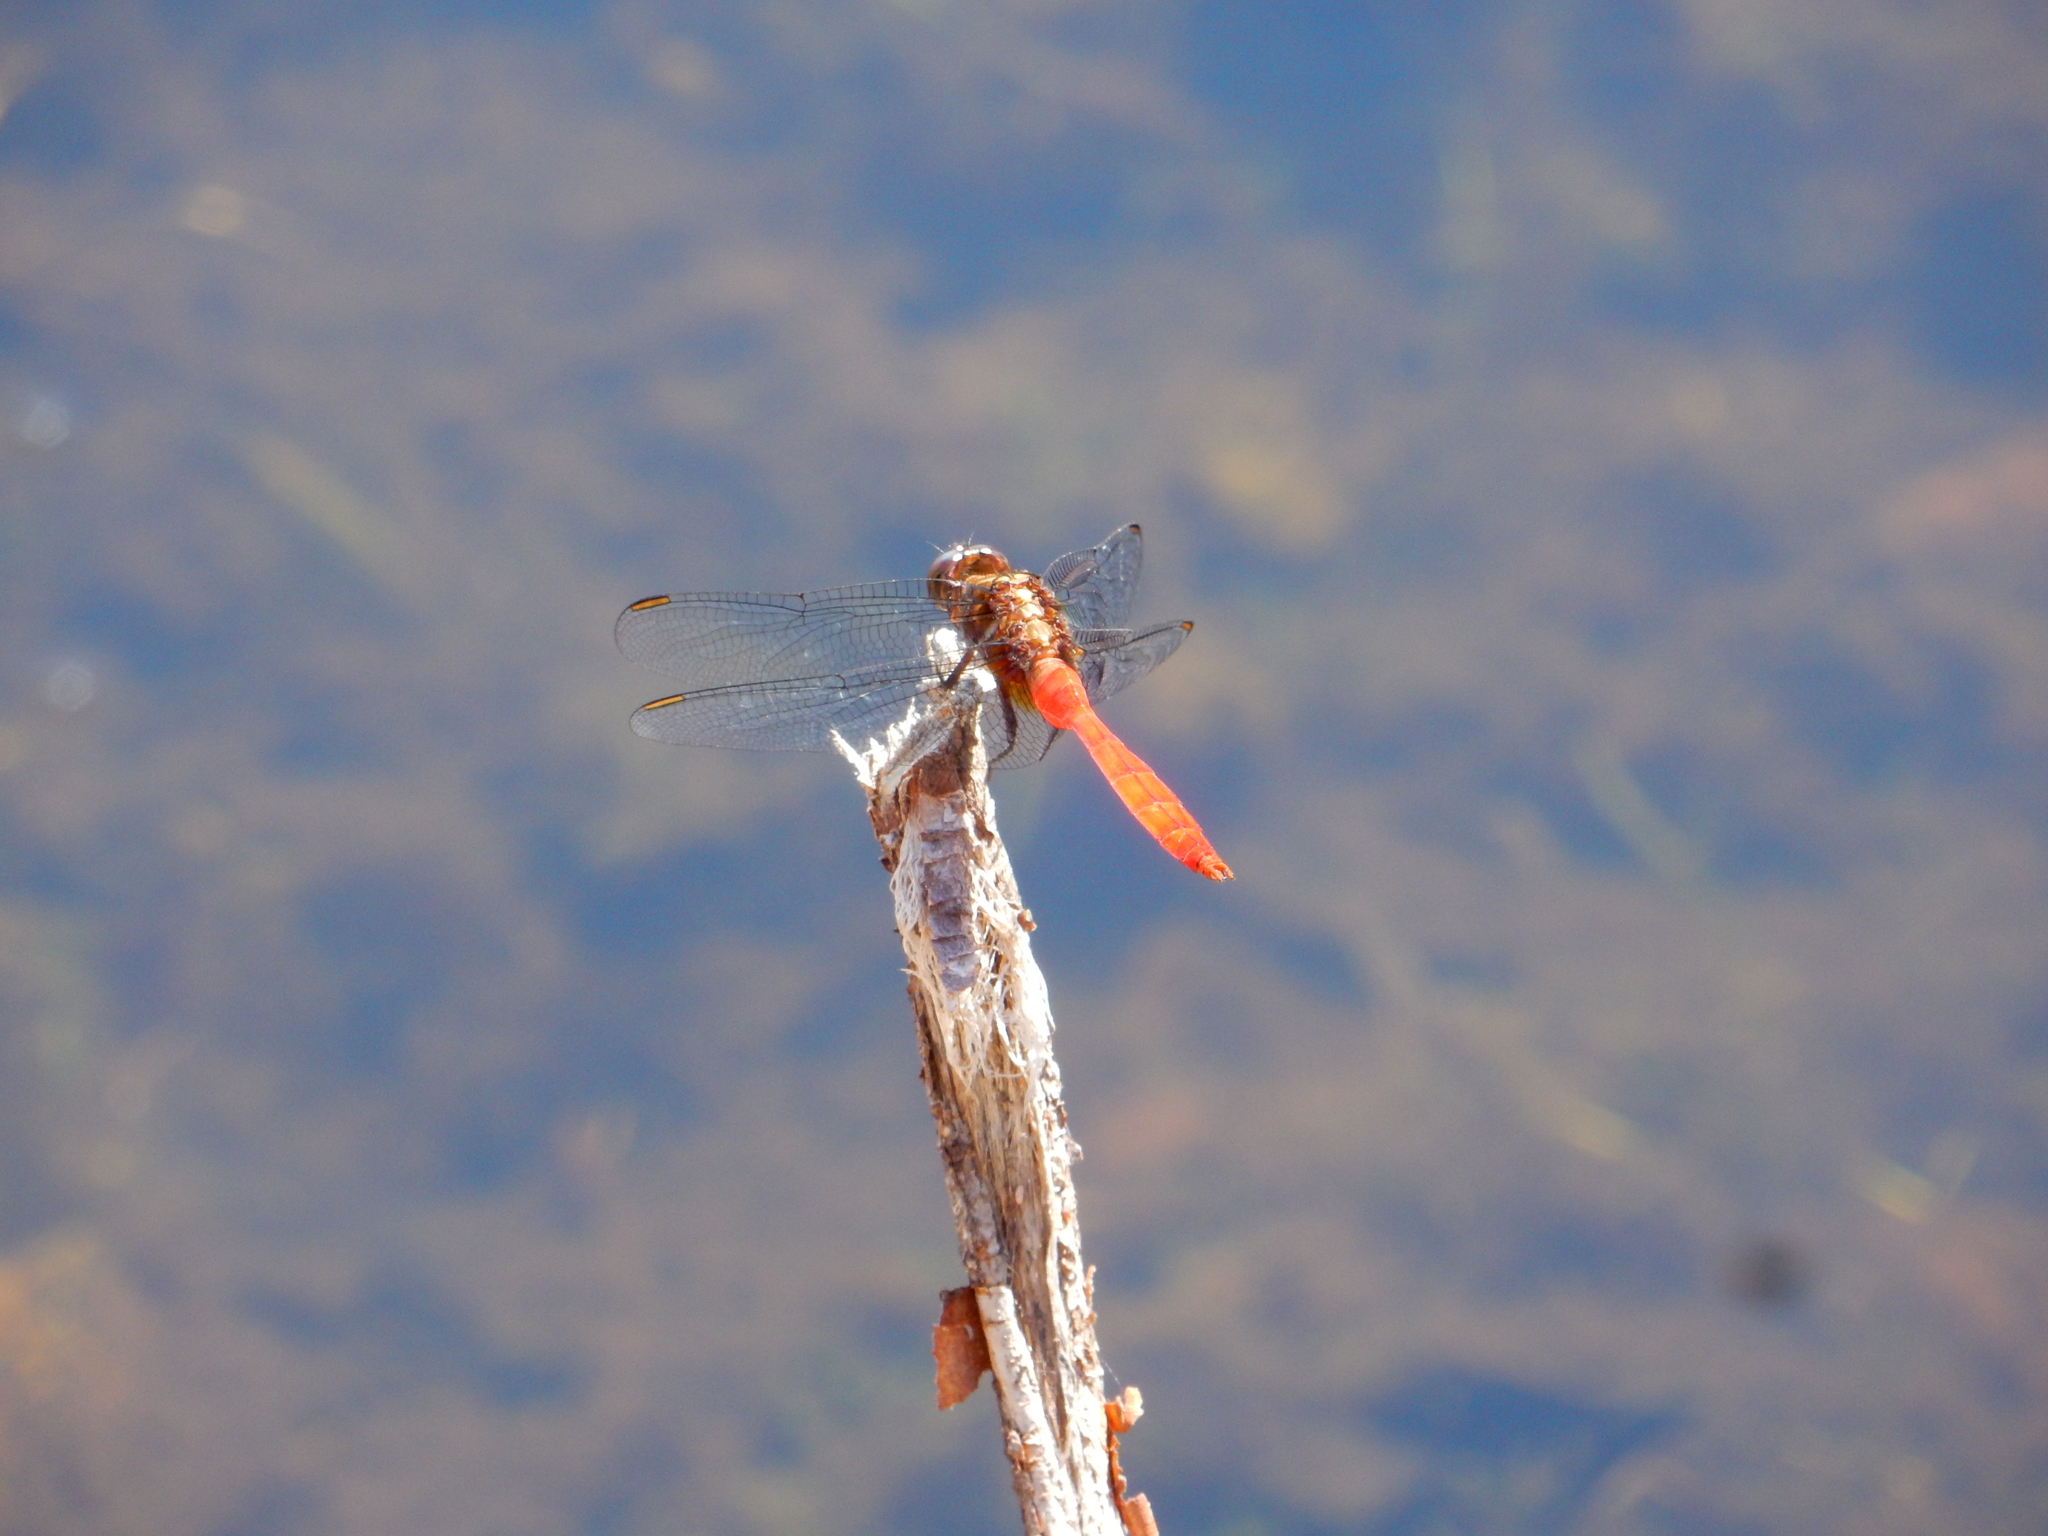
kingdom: Animalia
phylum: Arthropoda
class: Insecta
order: Odonata
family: Libellulidae
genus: Orthetrum
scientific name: Orthetrum villosovittatum
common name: Firery skimmer
